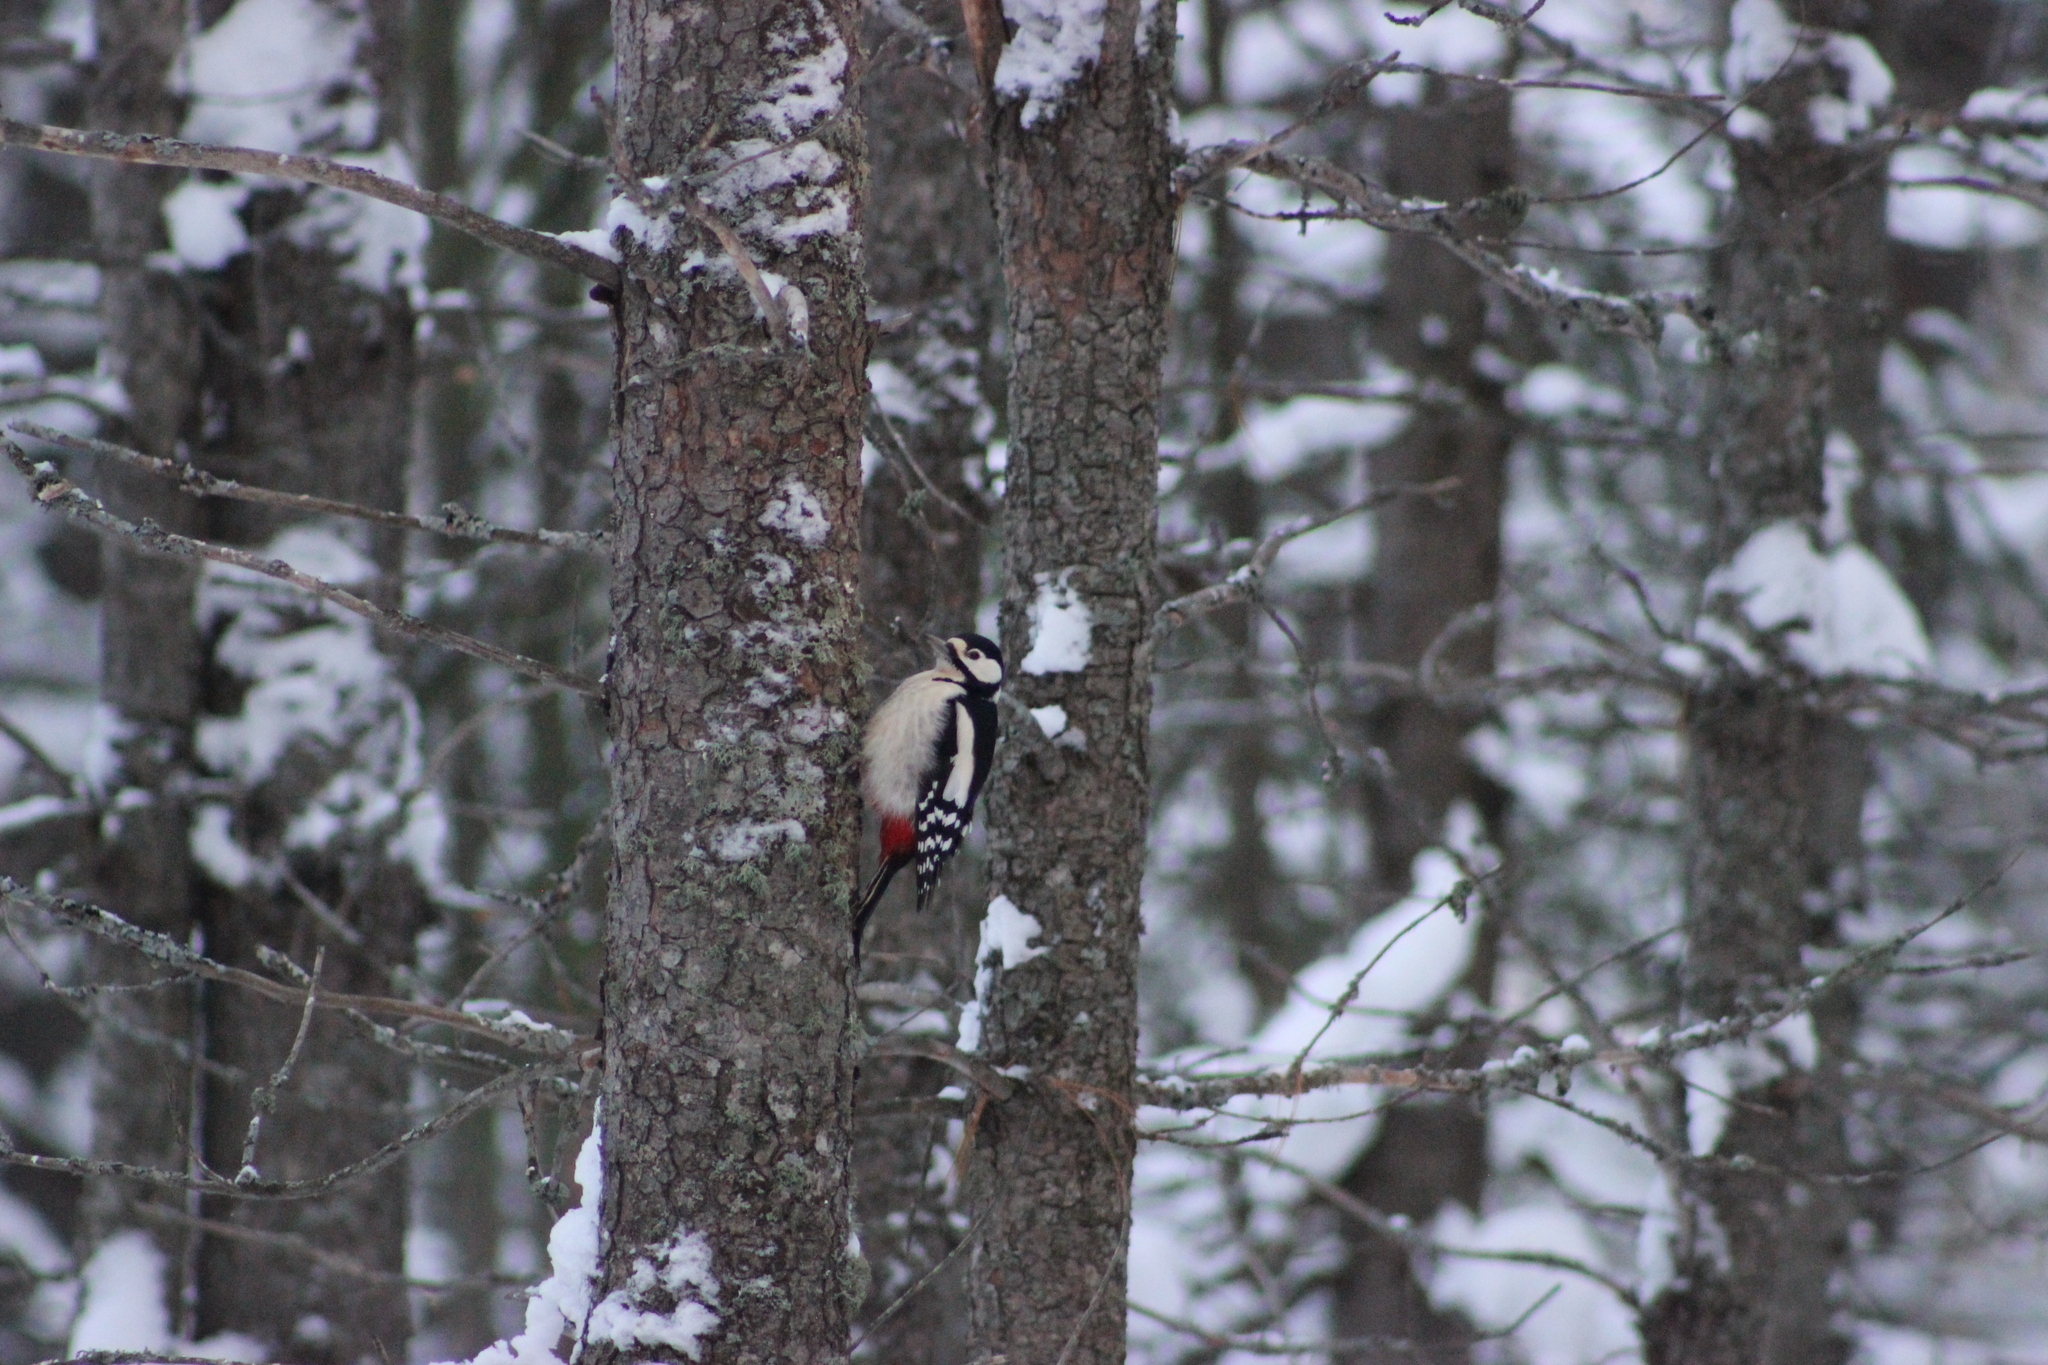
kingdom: Animalia
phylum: Chordata
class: Aves
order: Piciformes
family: Picidae
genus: Dendrocopos
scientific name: Dendrocopos major
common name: Great spotted woodpecker
